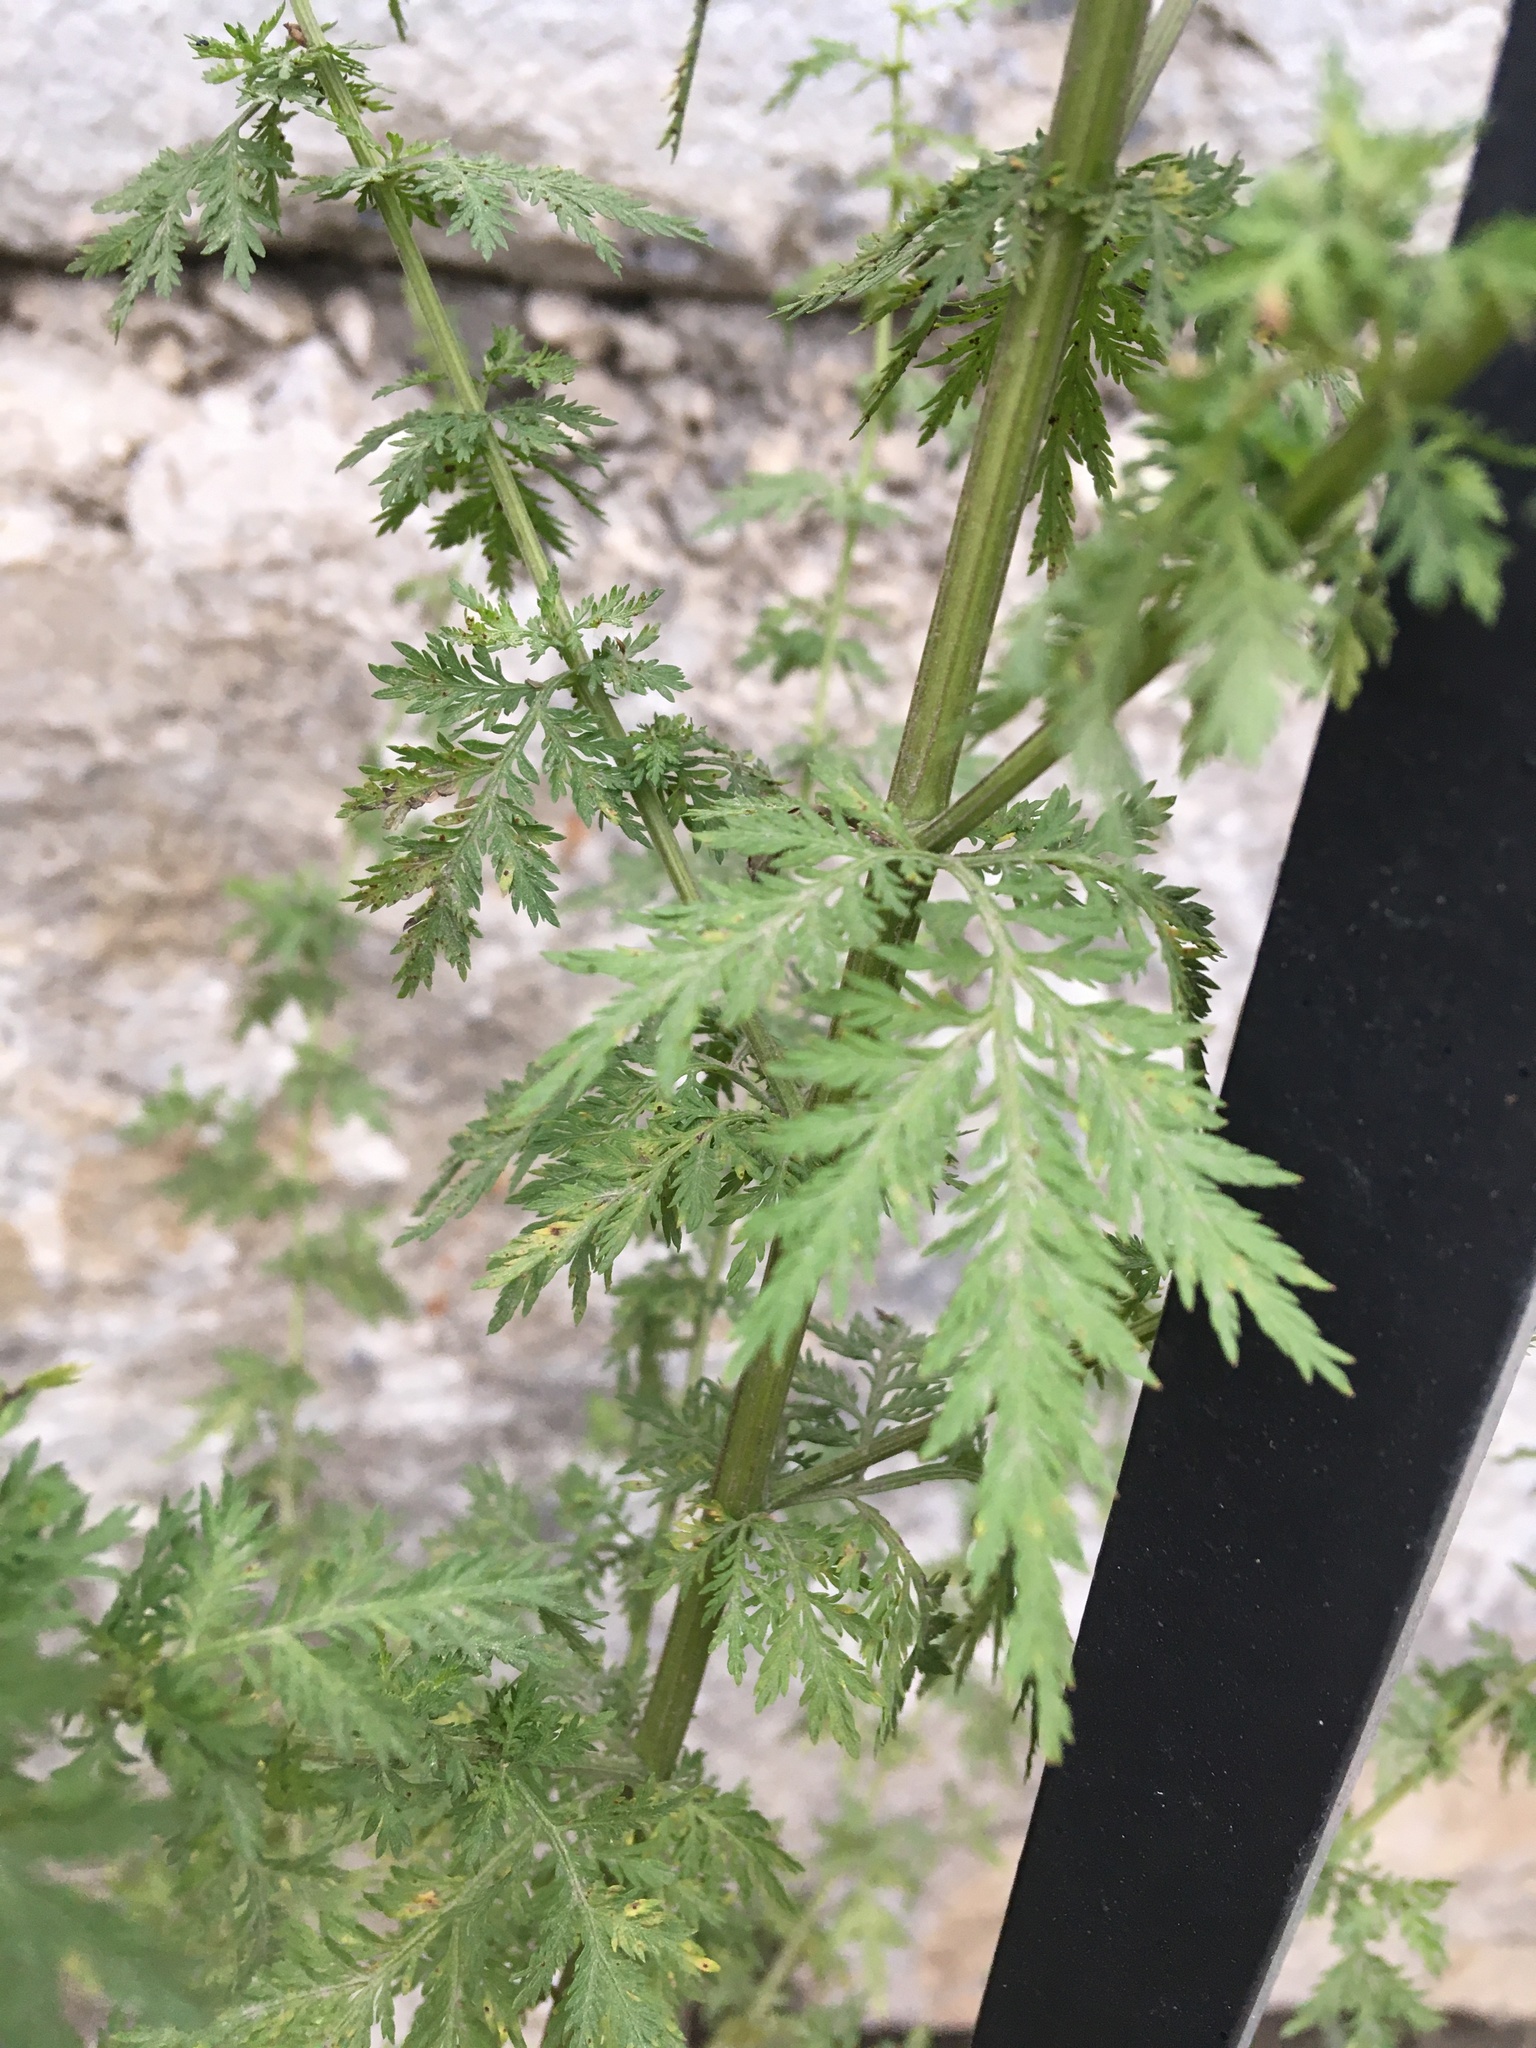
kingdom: Plantae
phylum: Tracheophyta
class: Magnoliopsida
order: Asterales
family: Asteraceae
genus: Artemisia
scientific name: Artemisia annua
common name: Sweet sagewort
